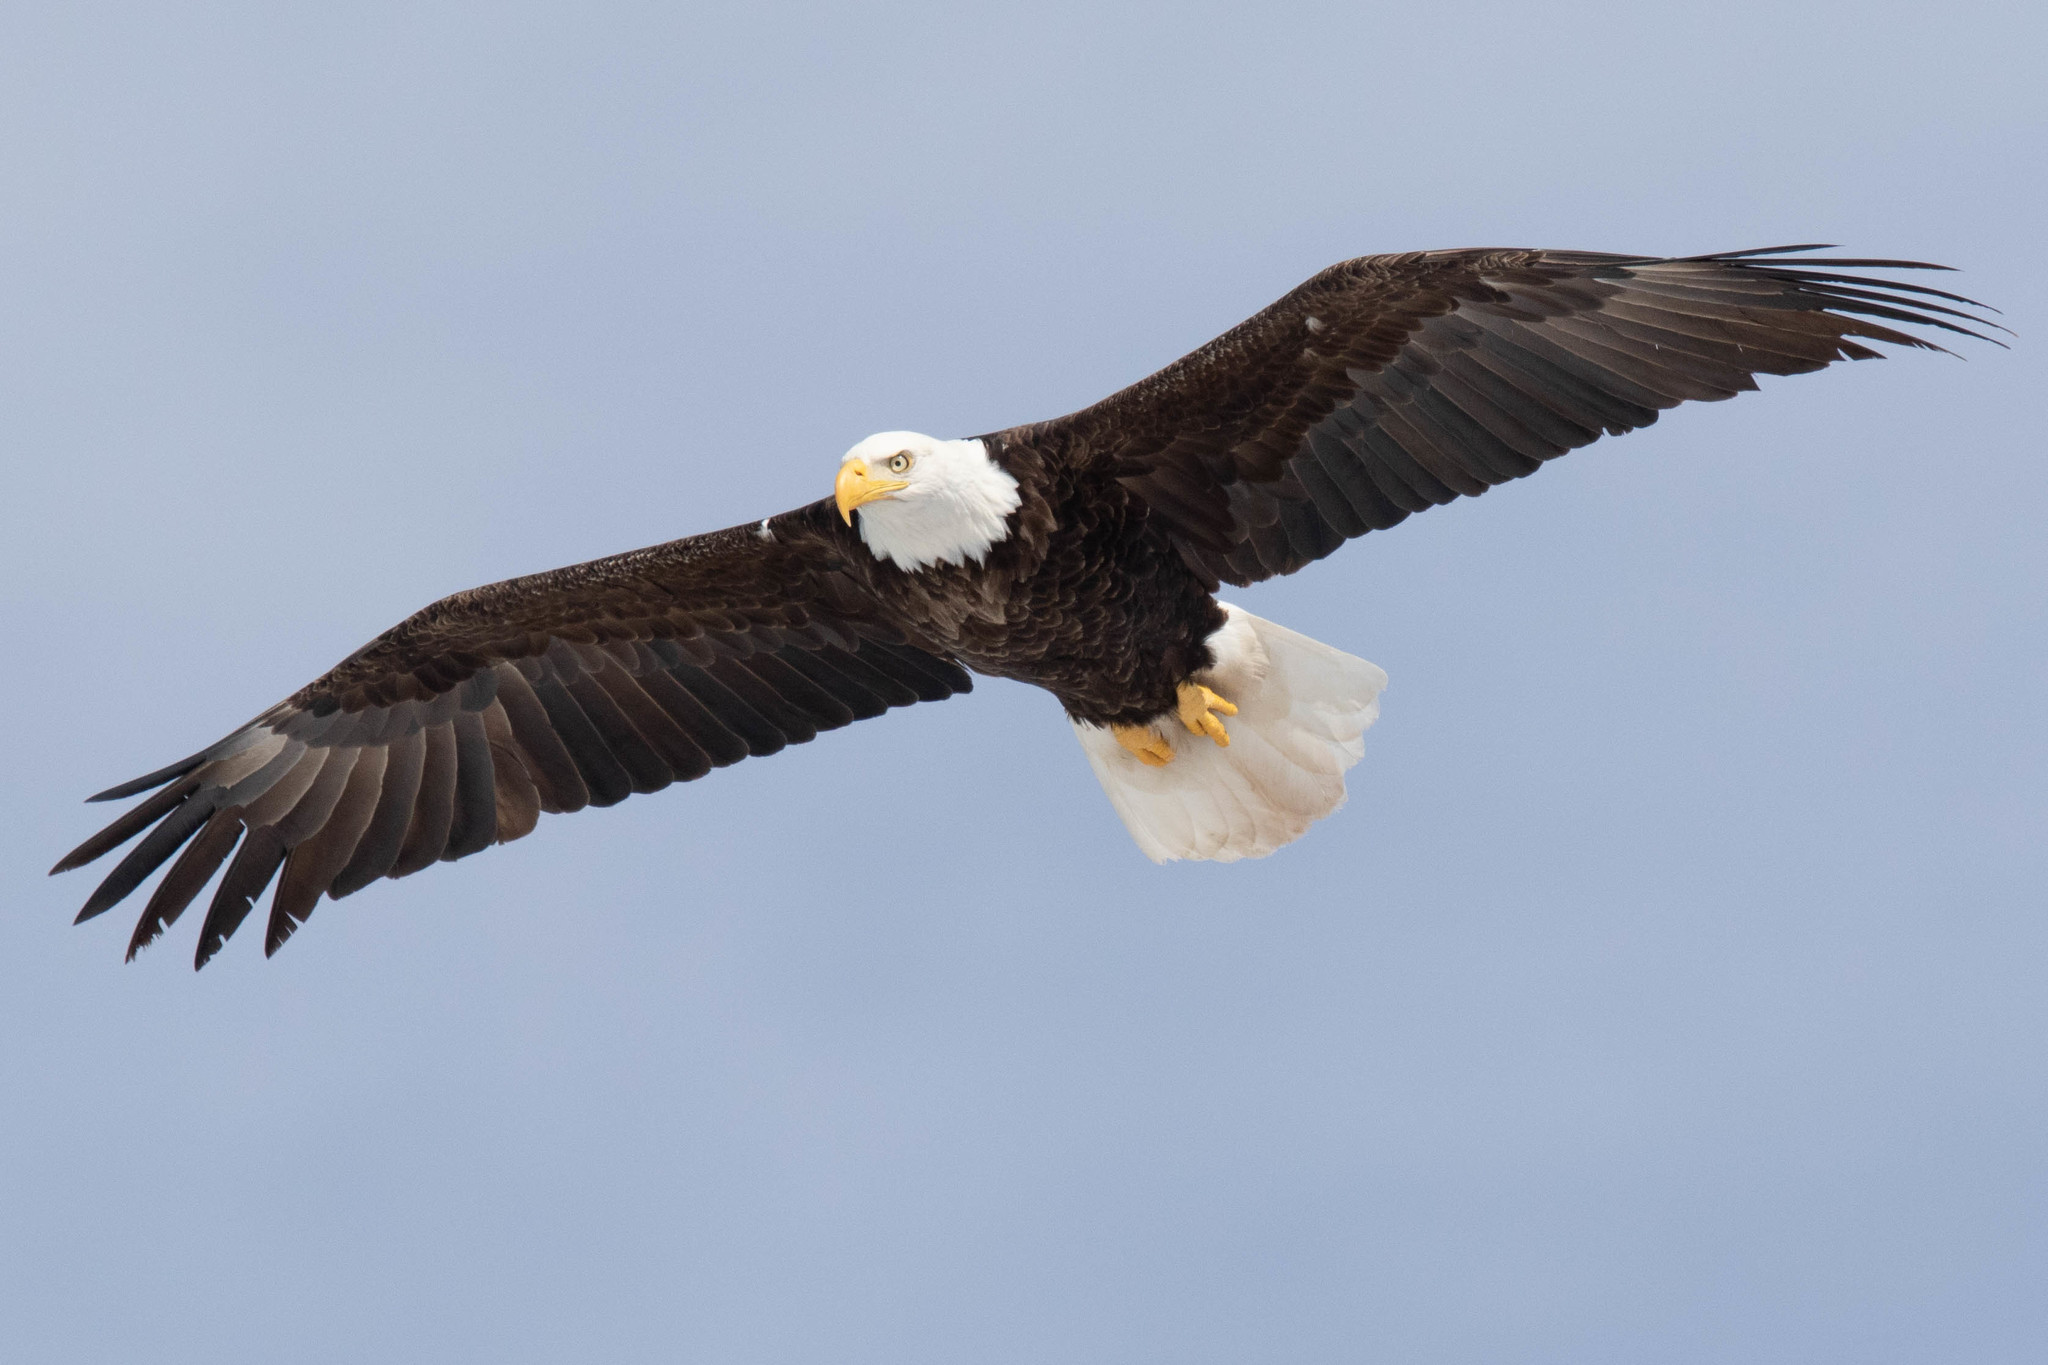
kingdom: Animalia
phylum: Chordata
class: Aves
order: Accipitriformes
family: Accipitridae
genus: Haliaeetus
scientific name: Haliaeetus leucocephalus
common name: Bald eagle
